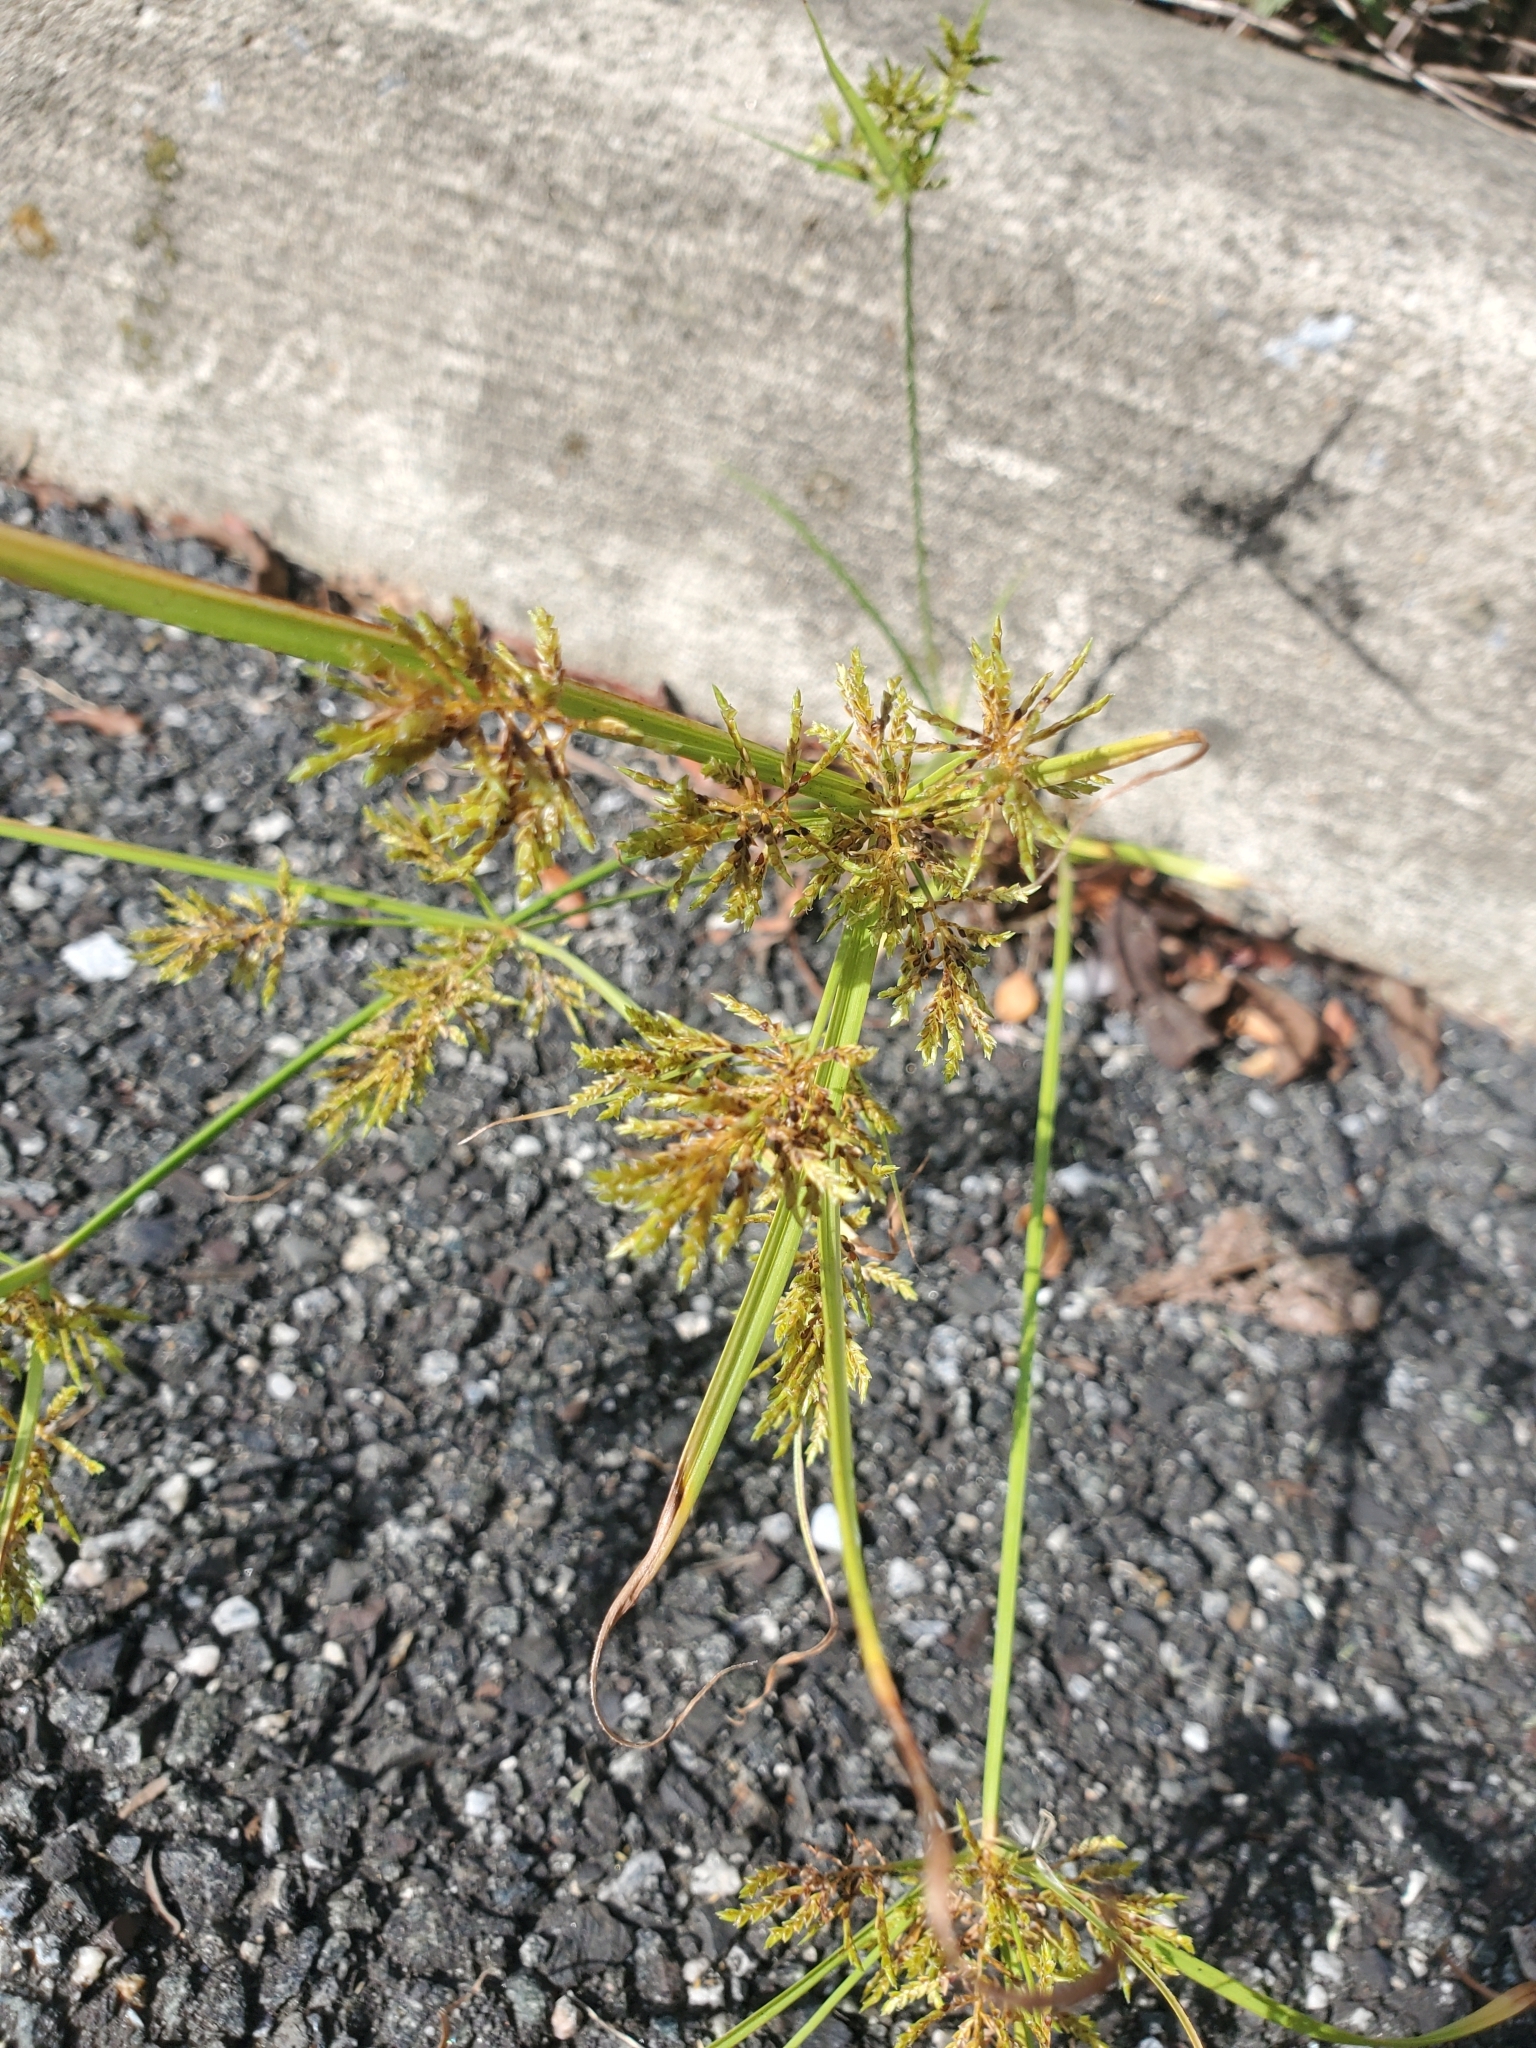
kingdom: Plantae
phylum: Tracheophyta
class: Liliopsida
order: Poales
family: Cyperaceae
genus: Cyperus
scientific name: Cyperus iria
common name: Ricefield flatsedge
